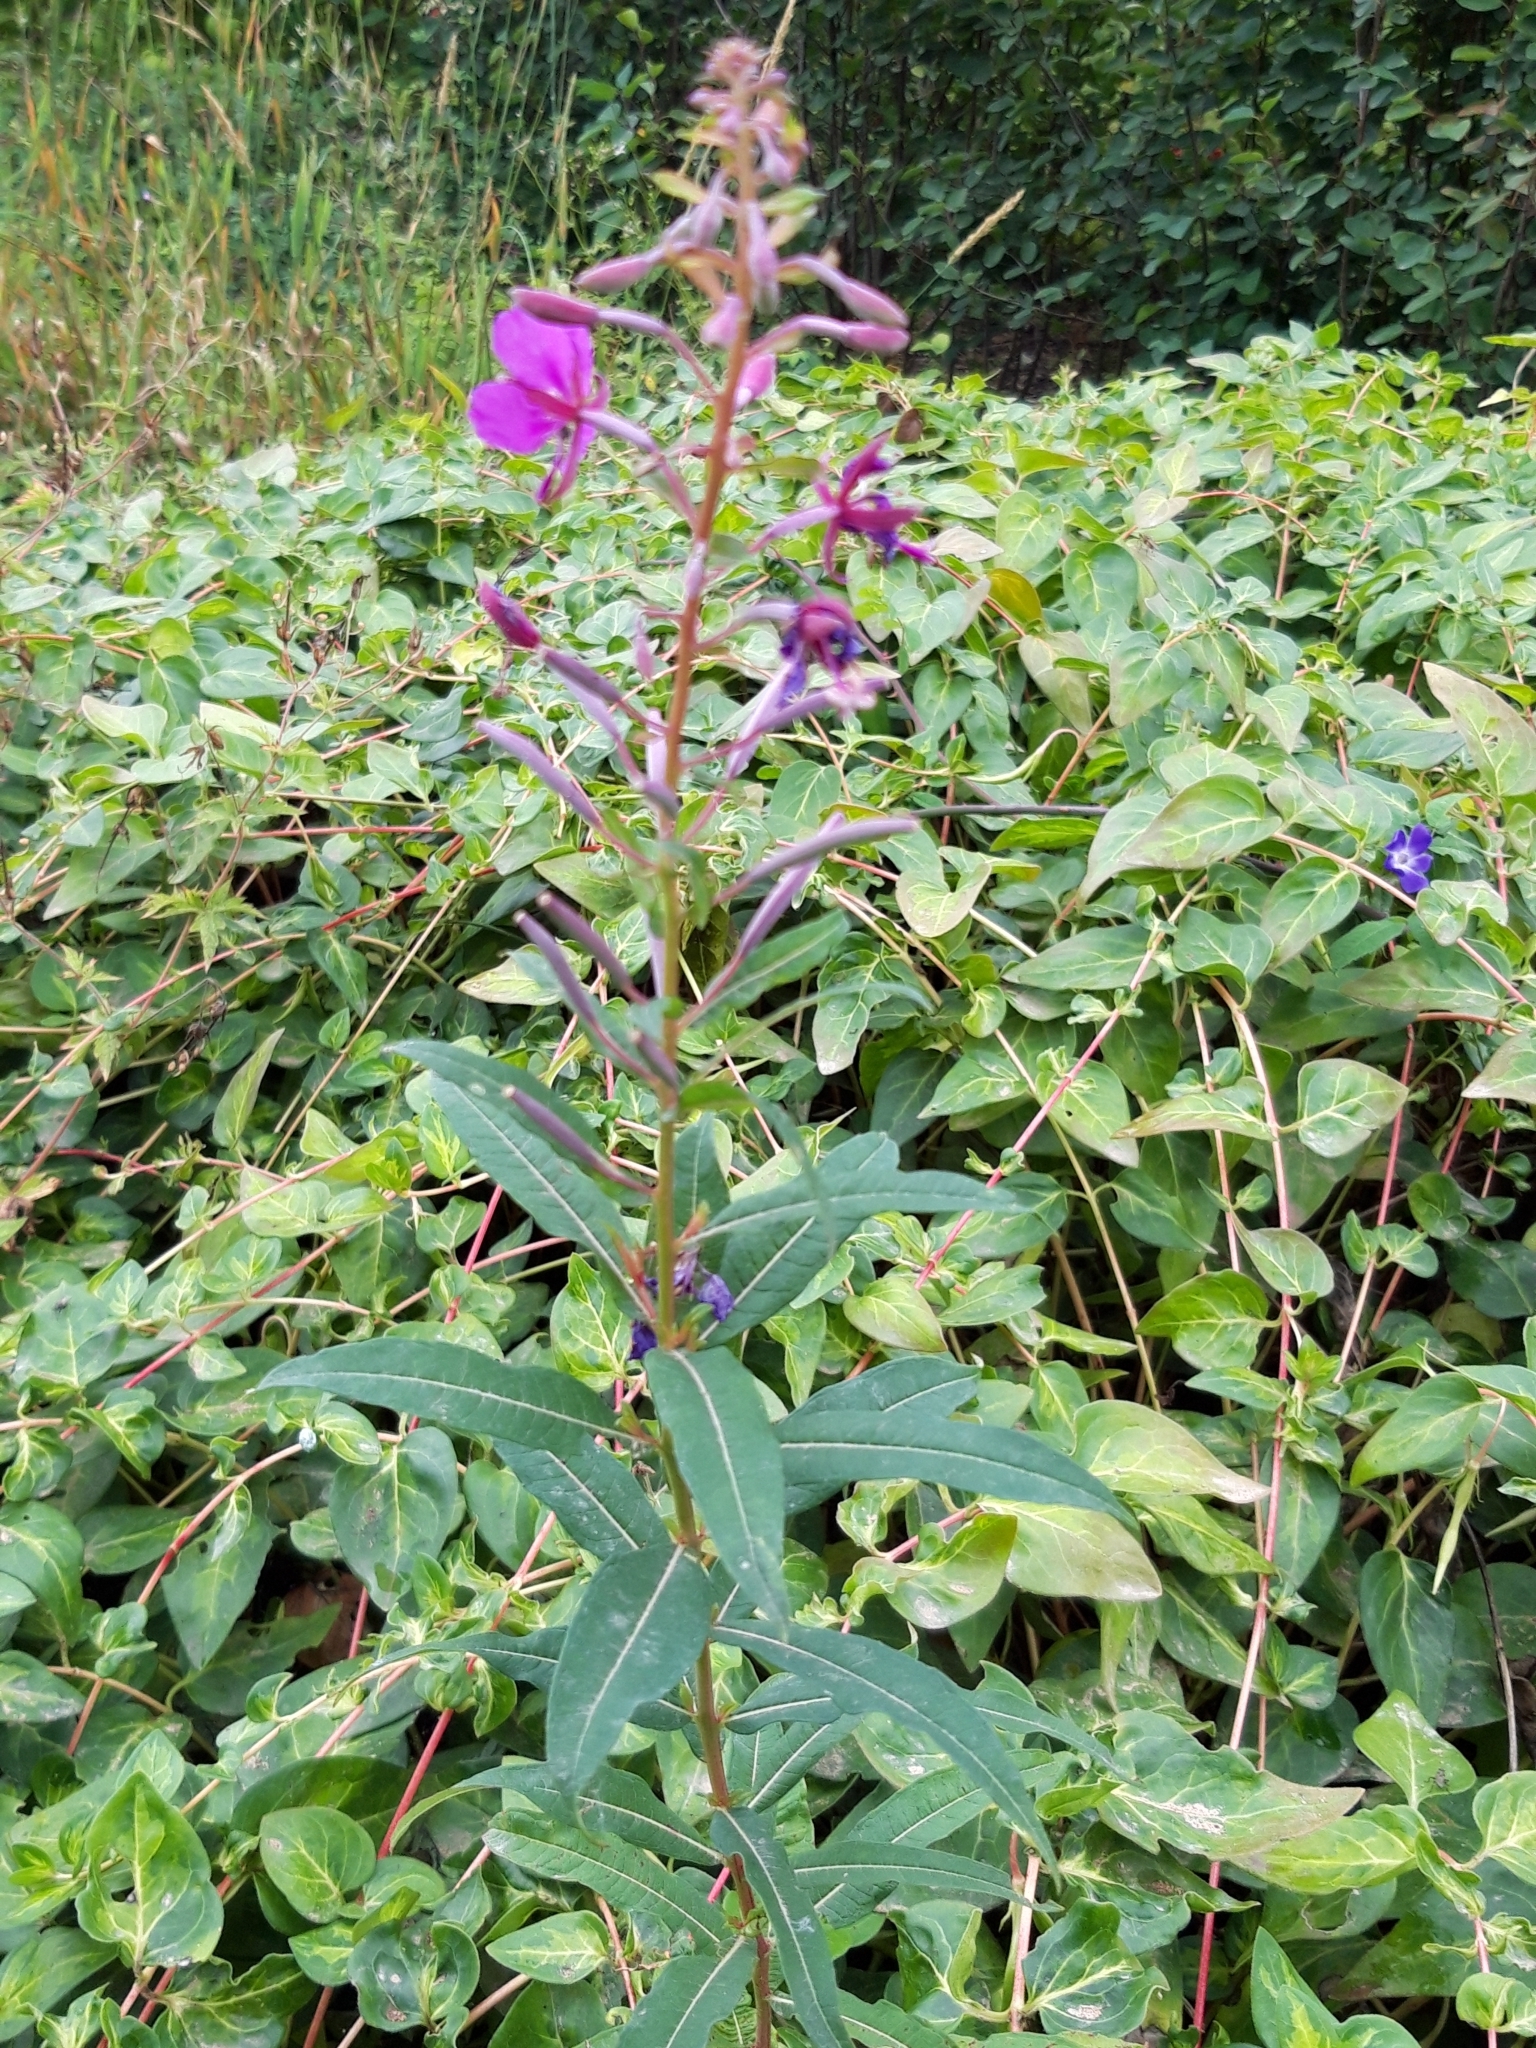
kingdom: Plantae
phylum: Tracheophyta
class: Magnoliopsida
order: Myrtales
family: Onagraceae
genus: Chamaenerion
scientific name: Chamaenerion angustifolium
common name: Fireweed
